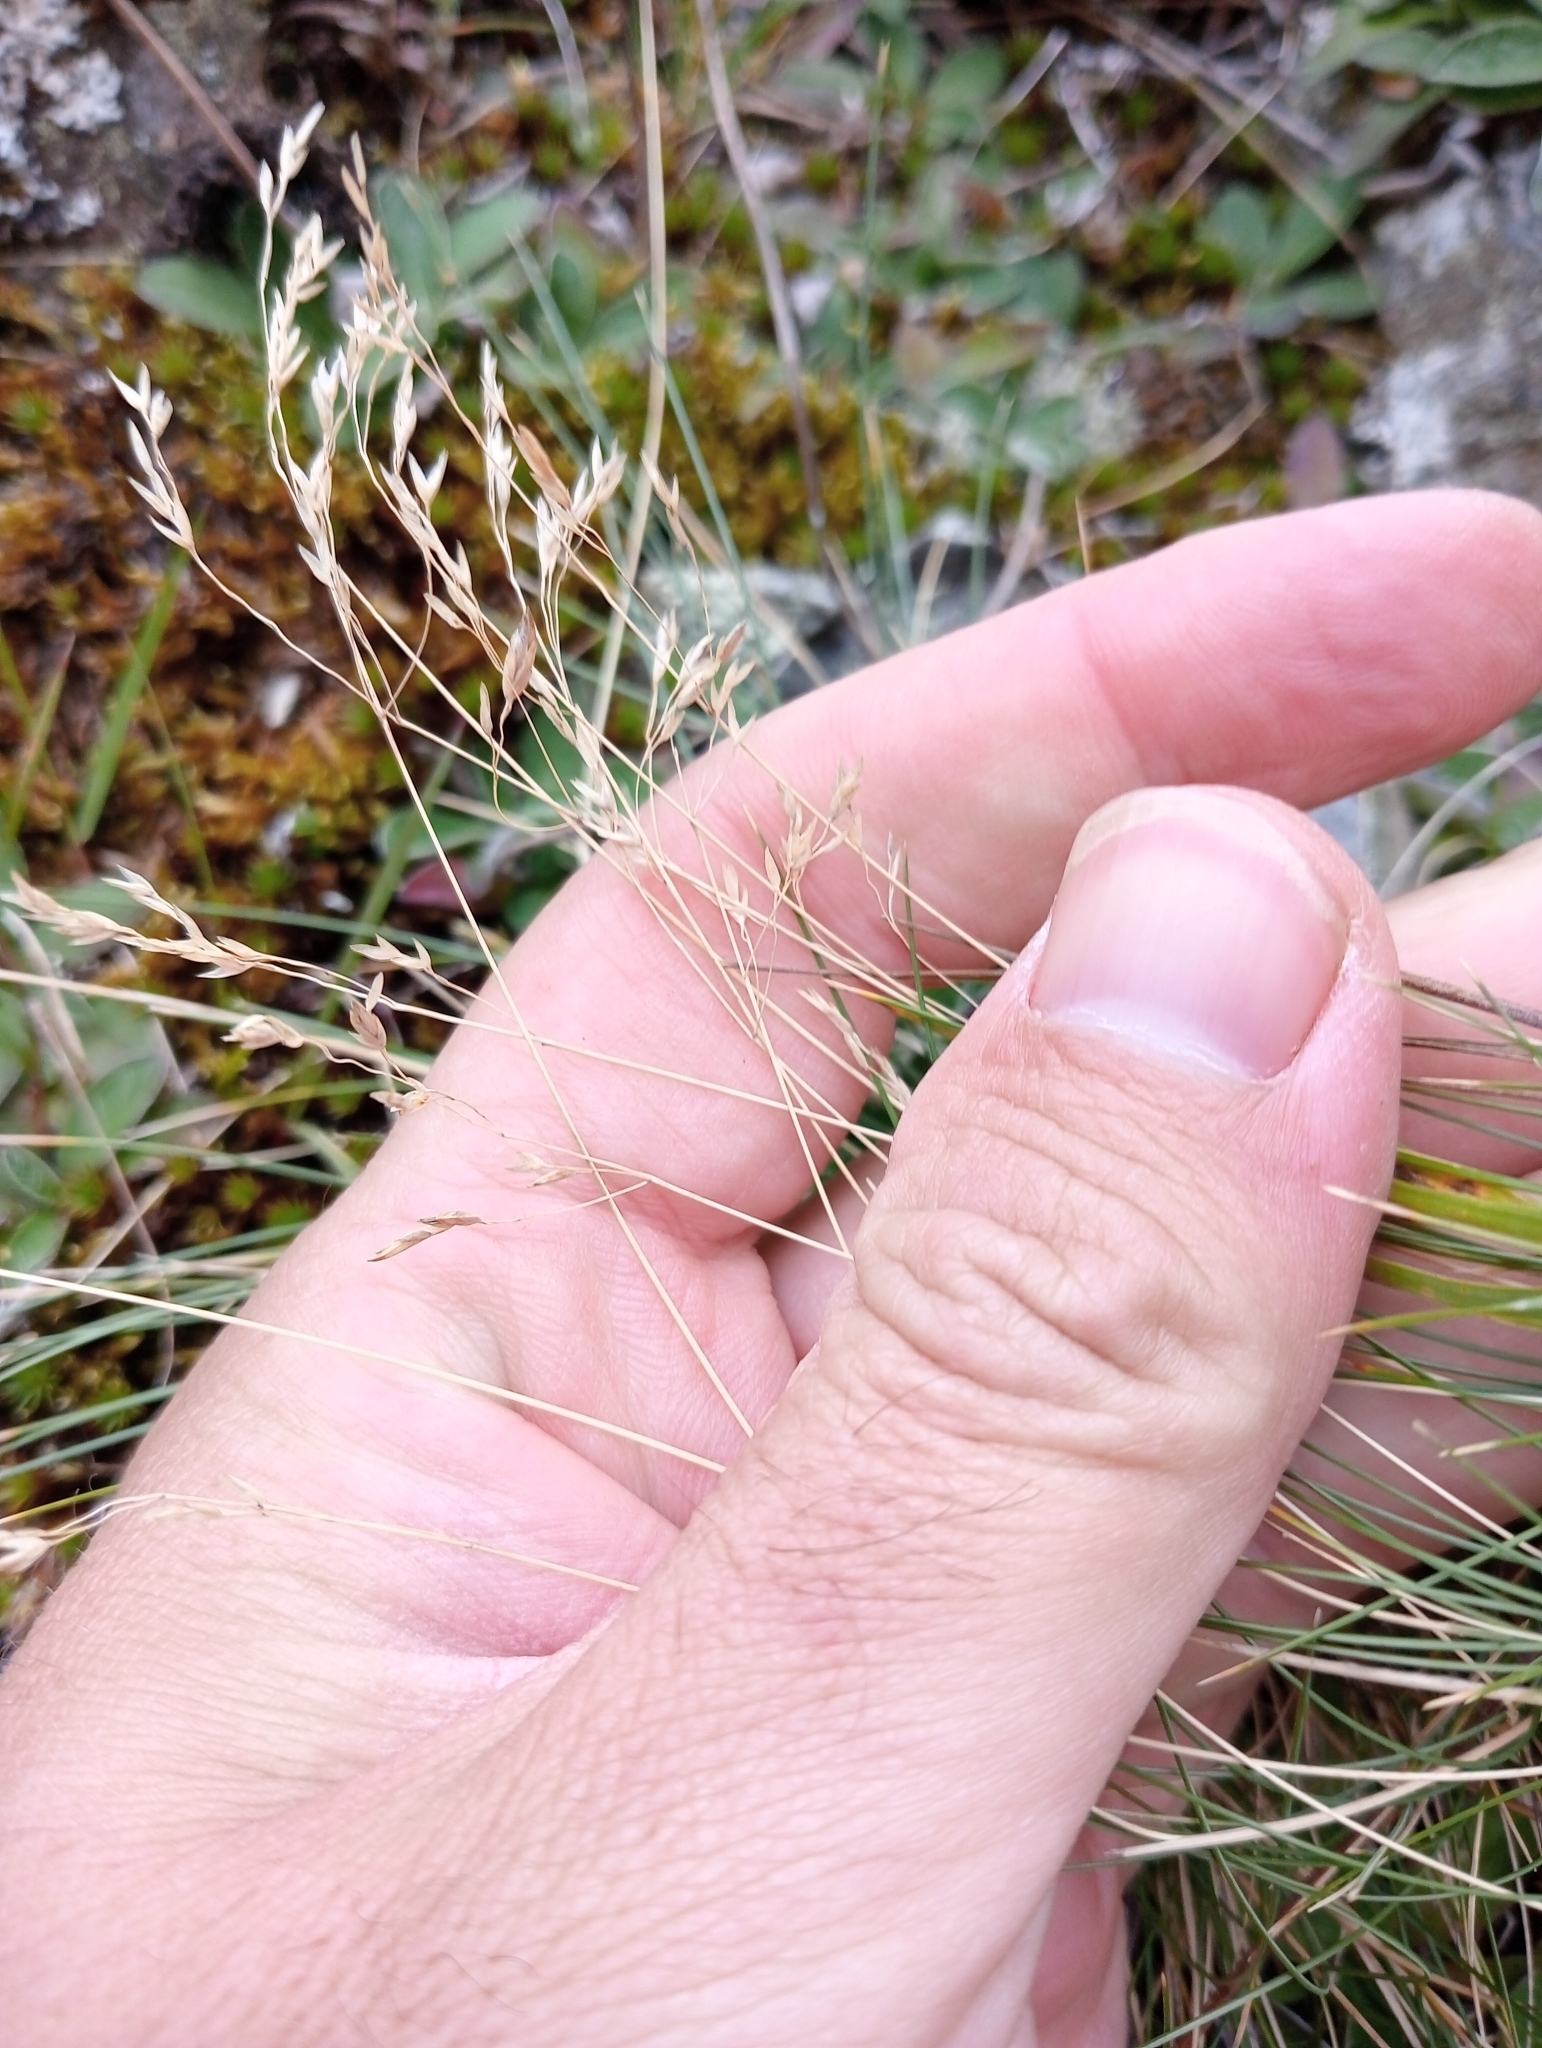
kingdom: Plantae
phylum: Tracheophyta
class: Liliopsida
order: Poales
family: Poaceae
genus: Poa
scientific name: Poa colensoi
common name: Blue tussock
